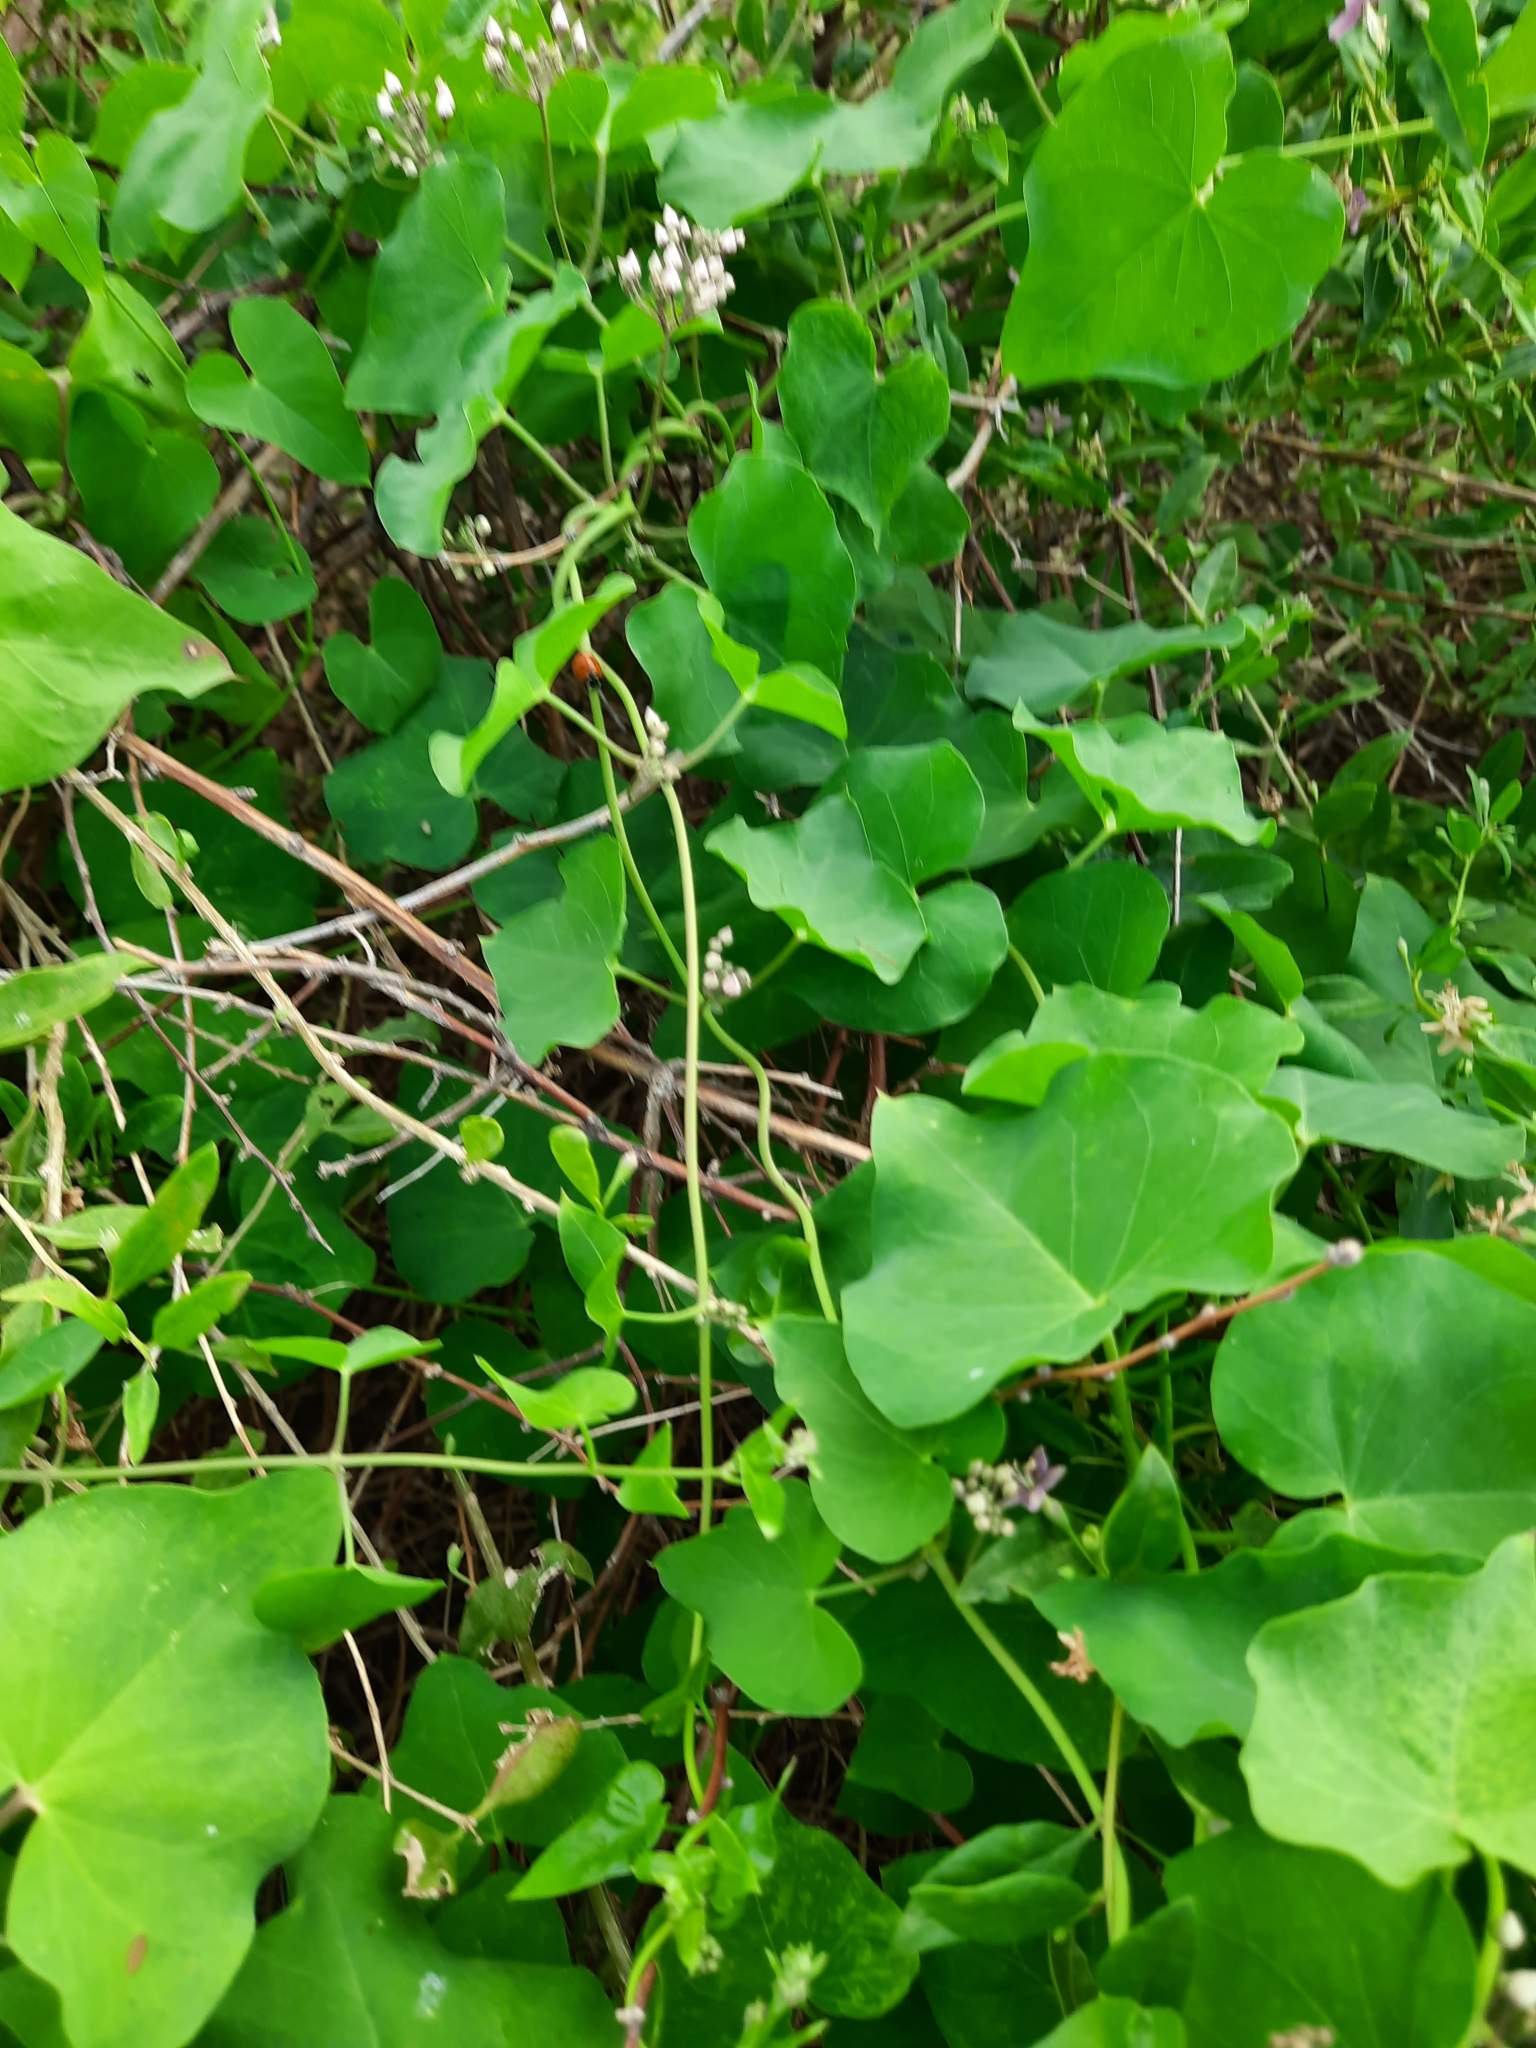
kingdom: Plantae
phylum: Tracheophyta
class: Magnoliopsida
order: Gentianales
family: Apocynaceae
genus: Cynanchum
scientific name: Cynanchum acutum
